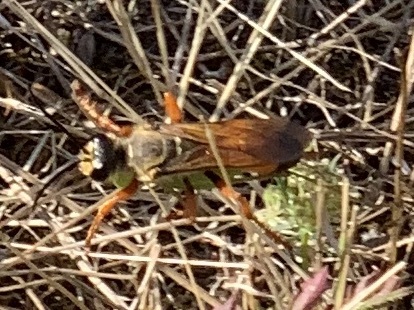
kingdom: Animalia
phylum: Arthropoda
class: Insecta
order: Hymenoptera
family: Sphecidae
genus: Sphex
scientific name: Sphex ichneumoneus
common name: Great golden digger wasp
